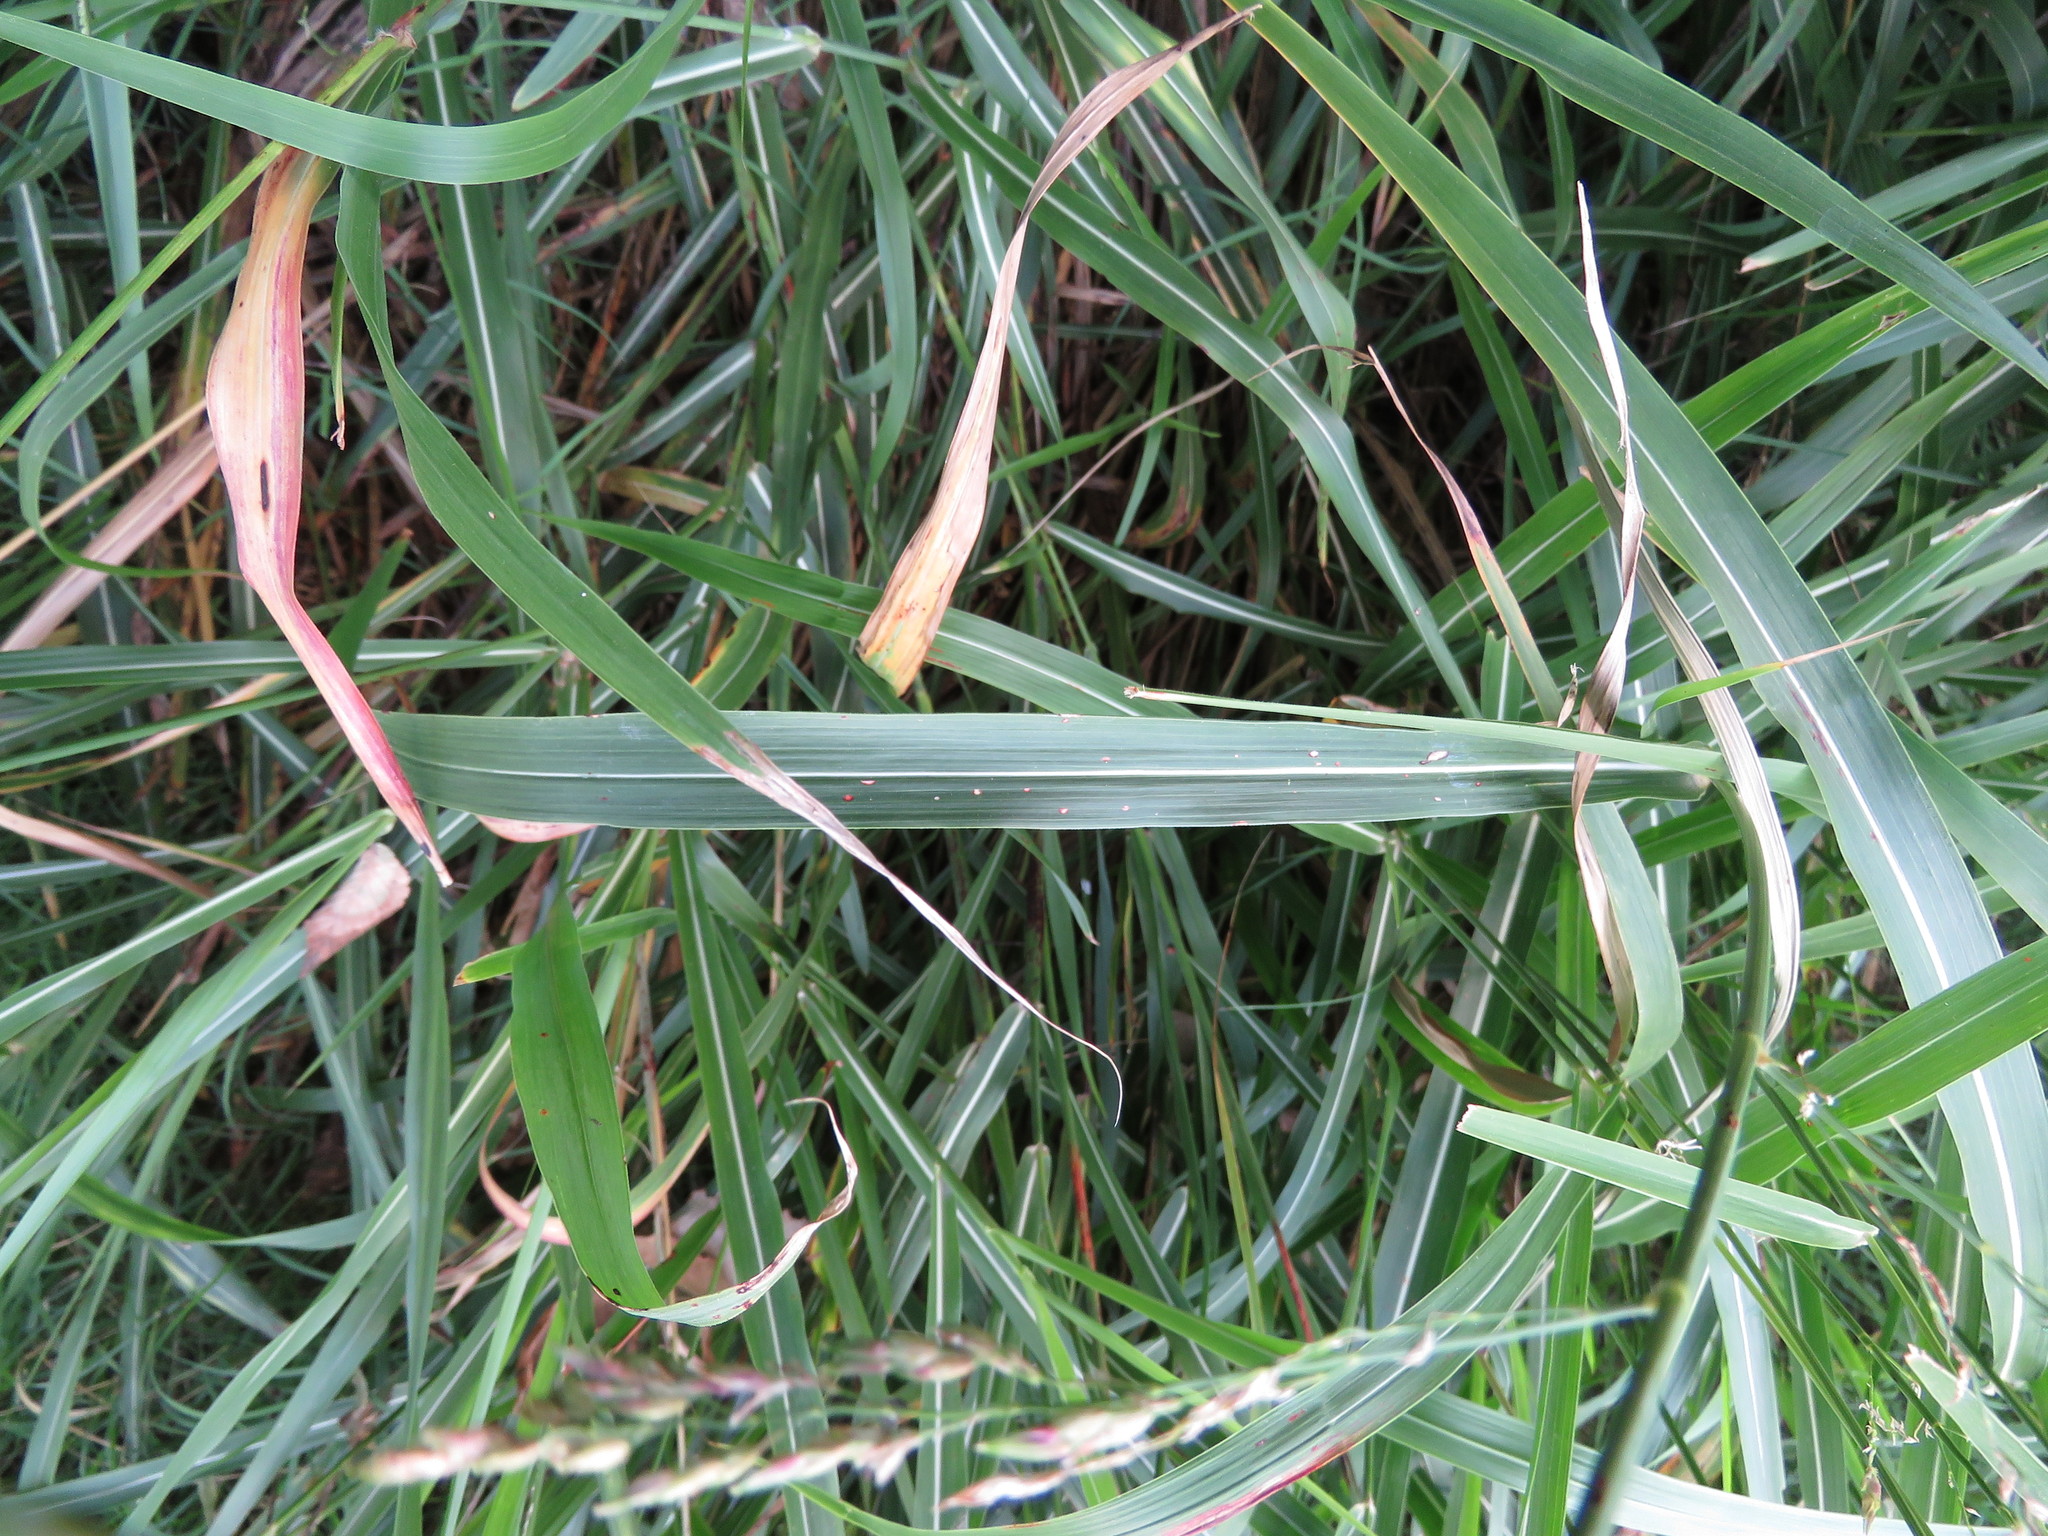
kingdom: Plantae
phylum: Tracheophyta
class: Liliopsida
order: Poales
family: Poaceae
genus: Sorghum
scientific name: Sorghum halepense
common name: Johnson-grass
